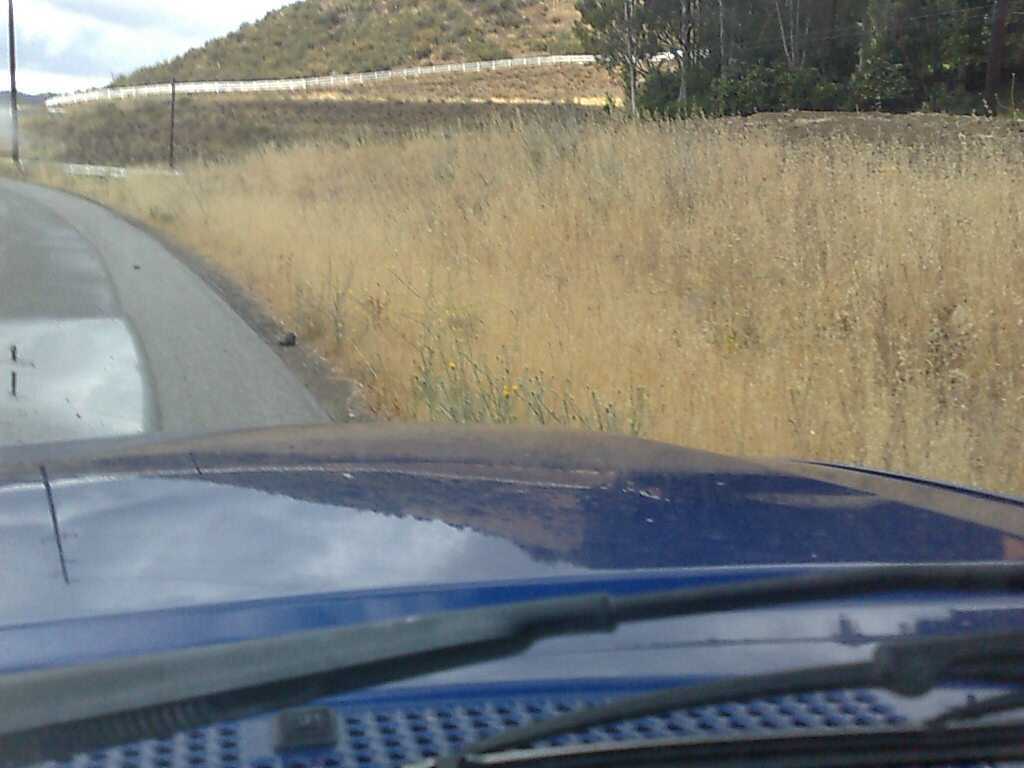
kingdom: Plantae
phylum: Tracheophyta
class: Magnoliopsida
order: Asterales
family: Asteraceae
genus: Centaurea
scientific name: Centaurea solstitialis
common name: Yellow star-thistle
